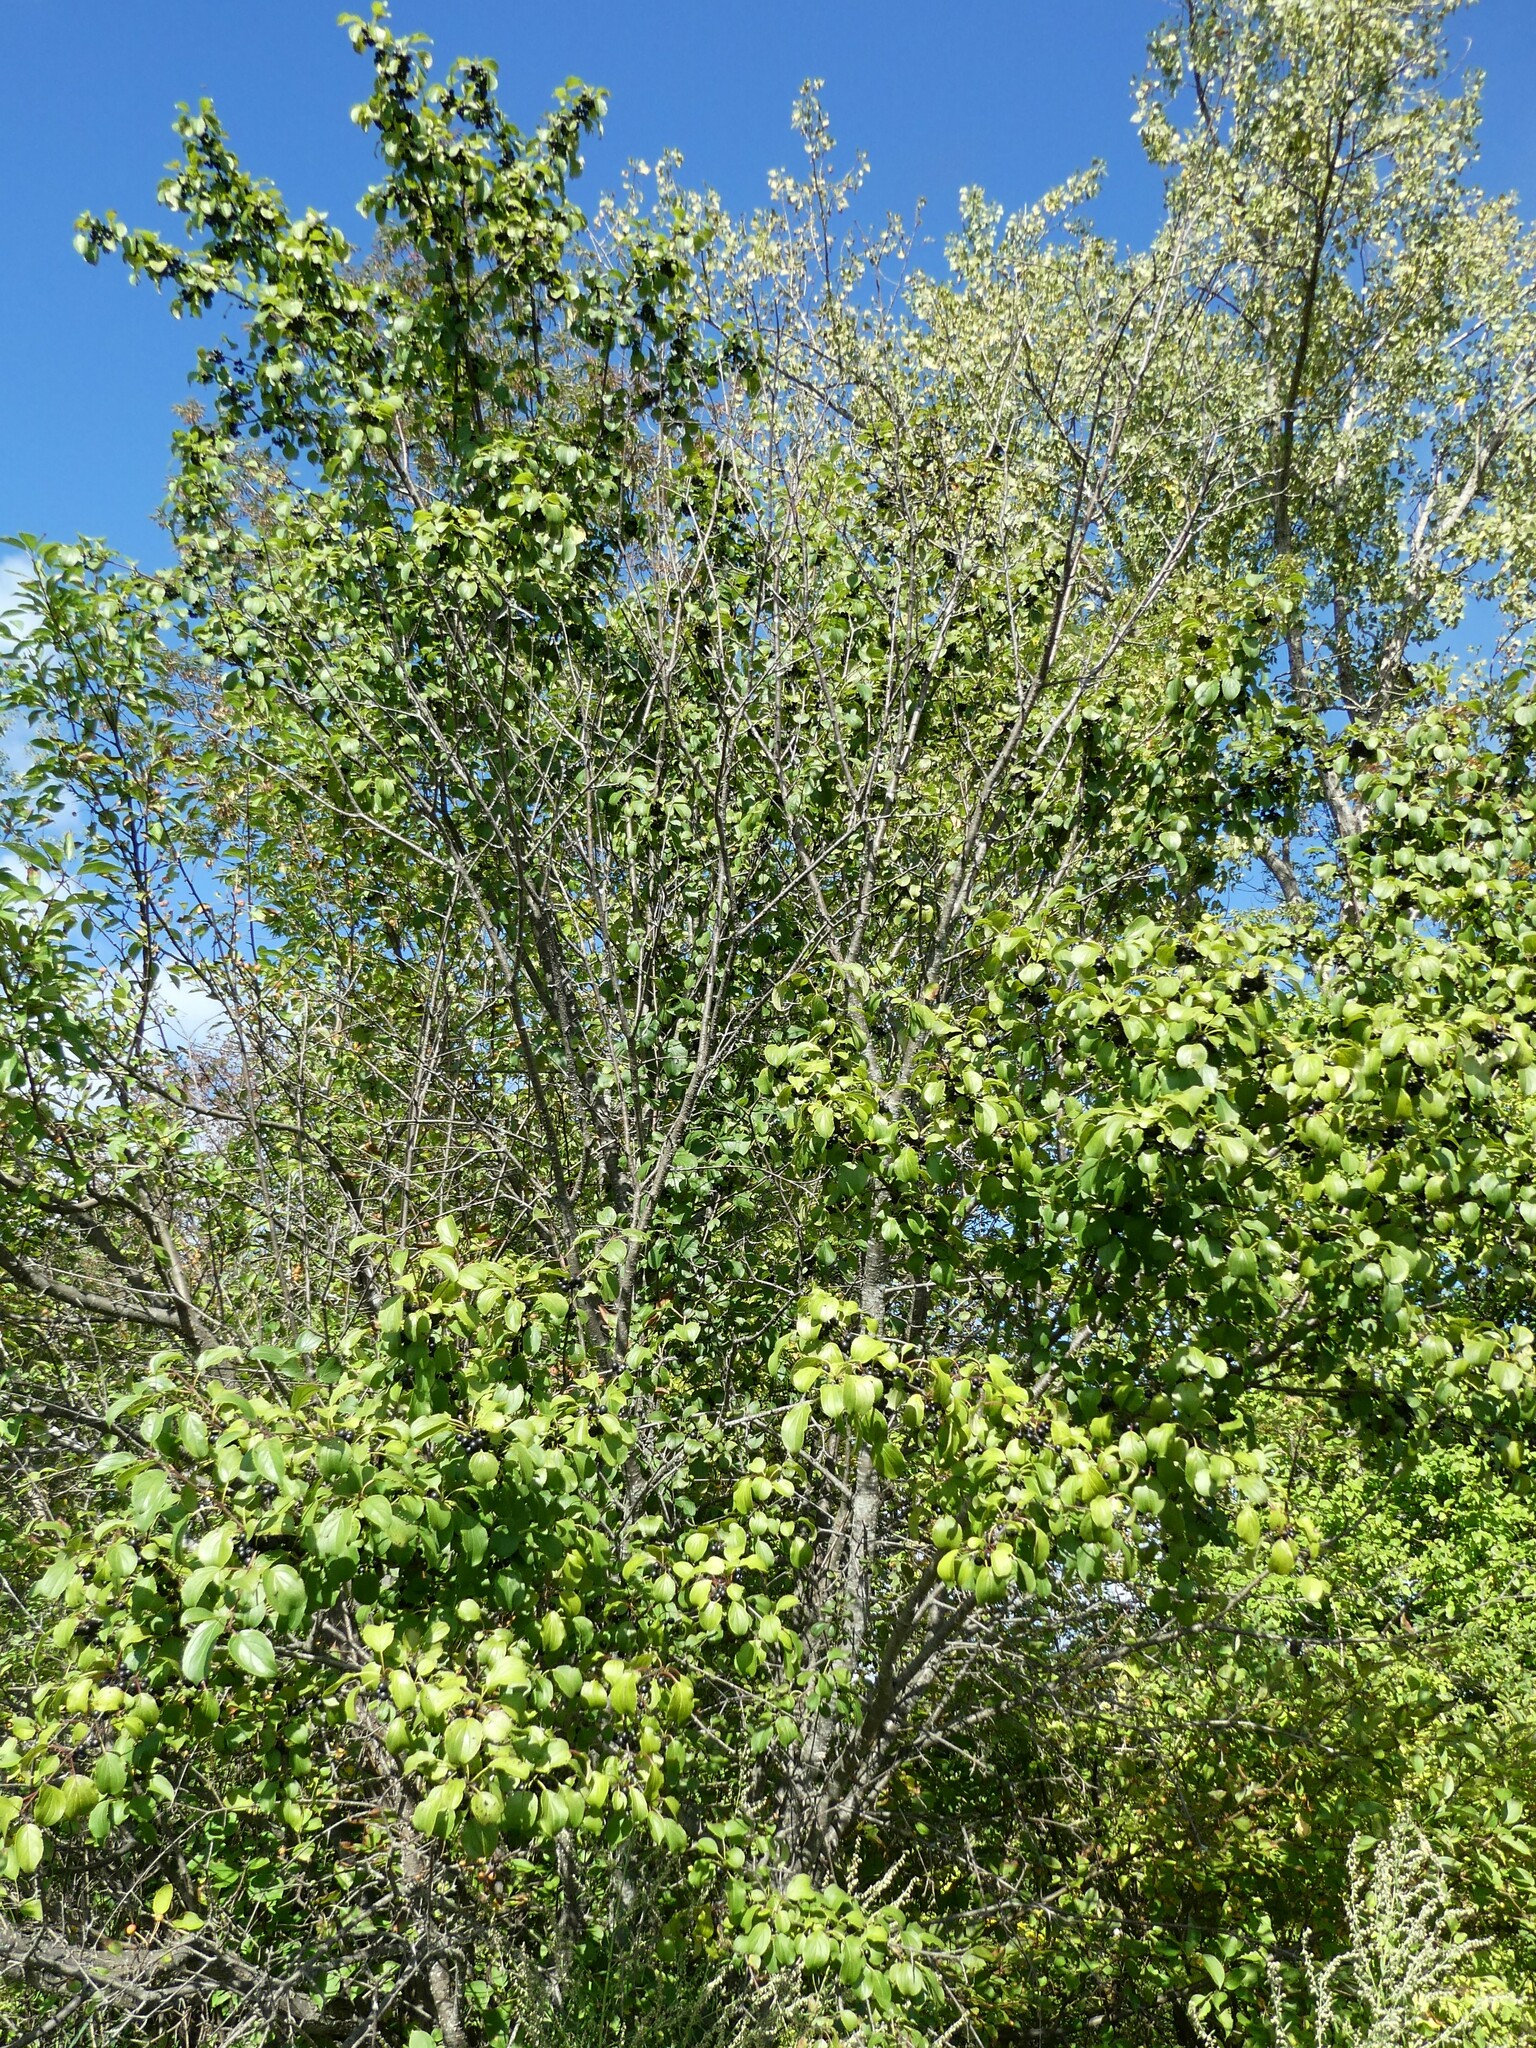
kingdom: Plantae
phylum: Tracheophyta
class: Magnoliopsida
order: Rosales
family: Rhamnaceae
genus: Rhamnus
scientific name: Rhamnus cathartica
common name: Common buckthorn
